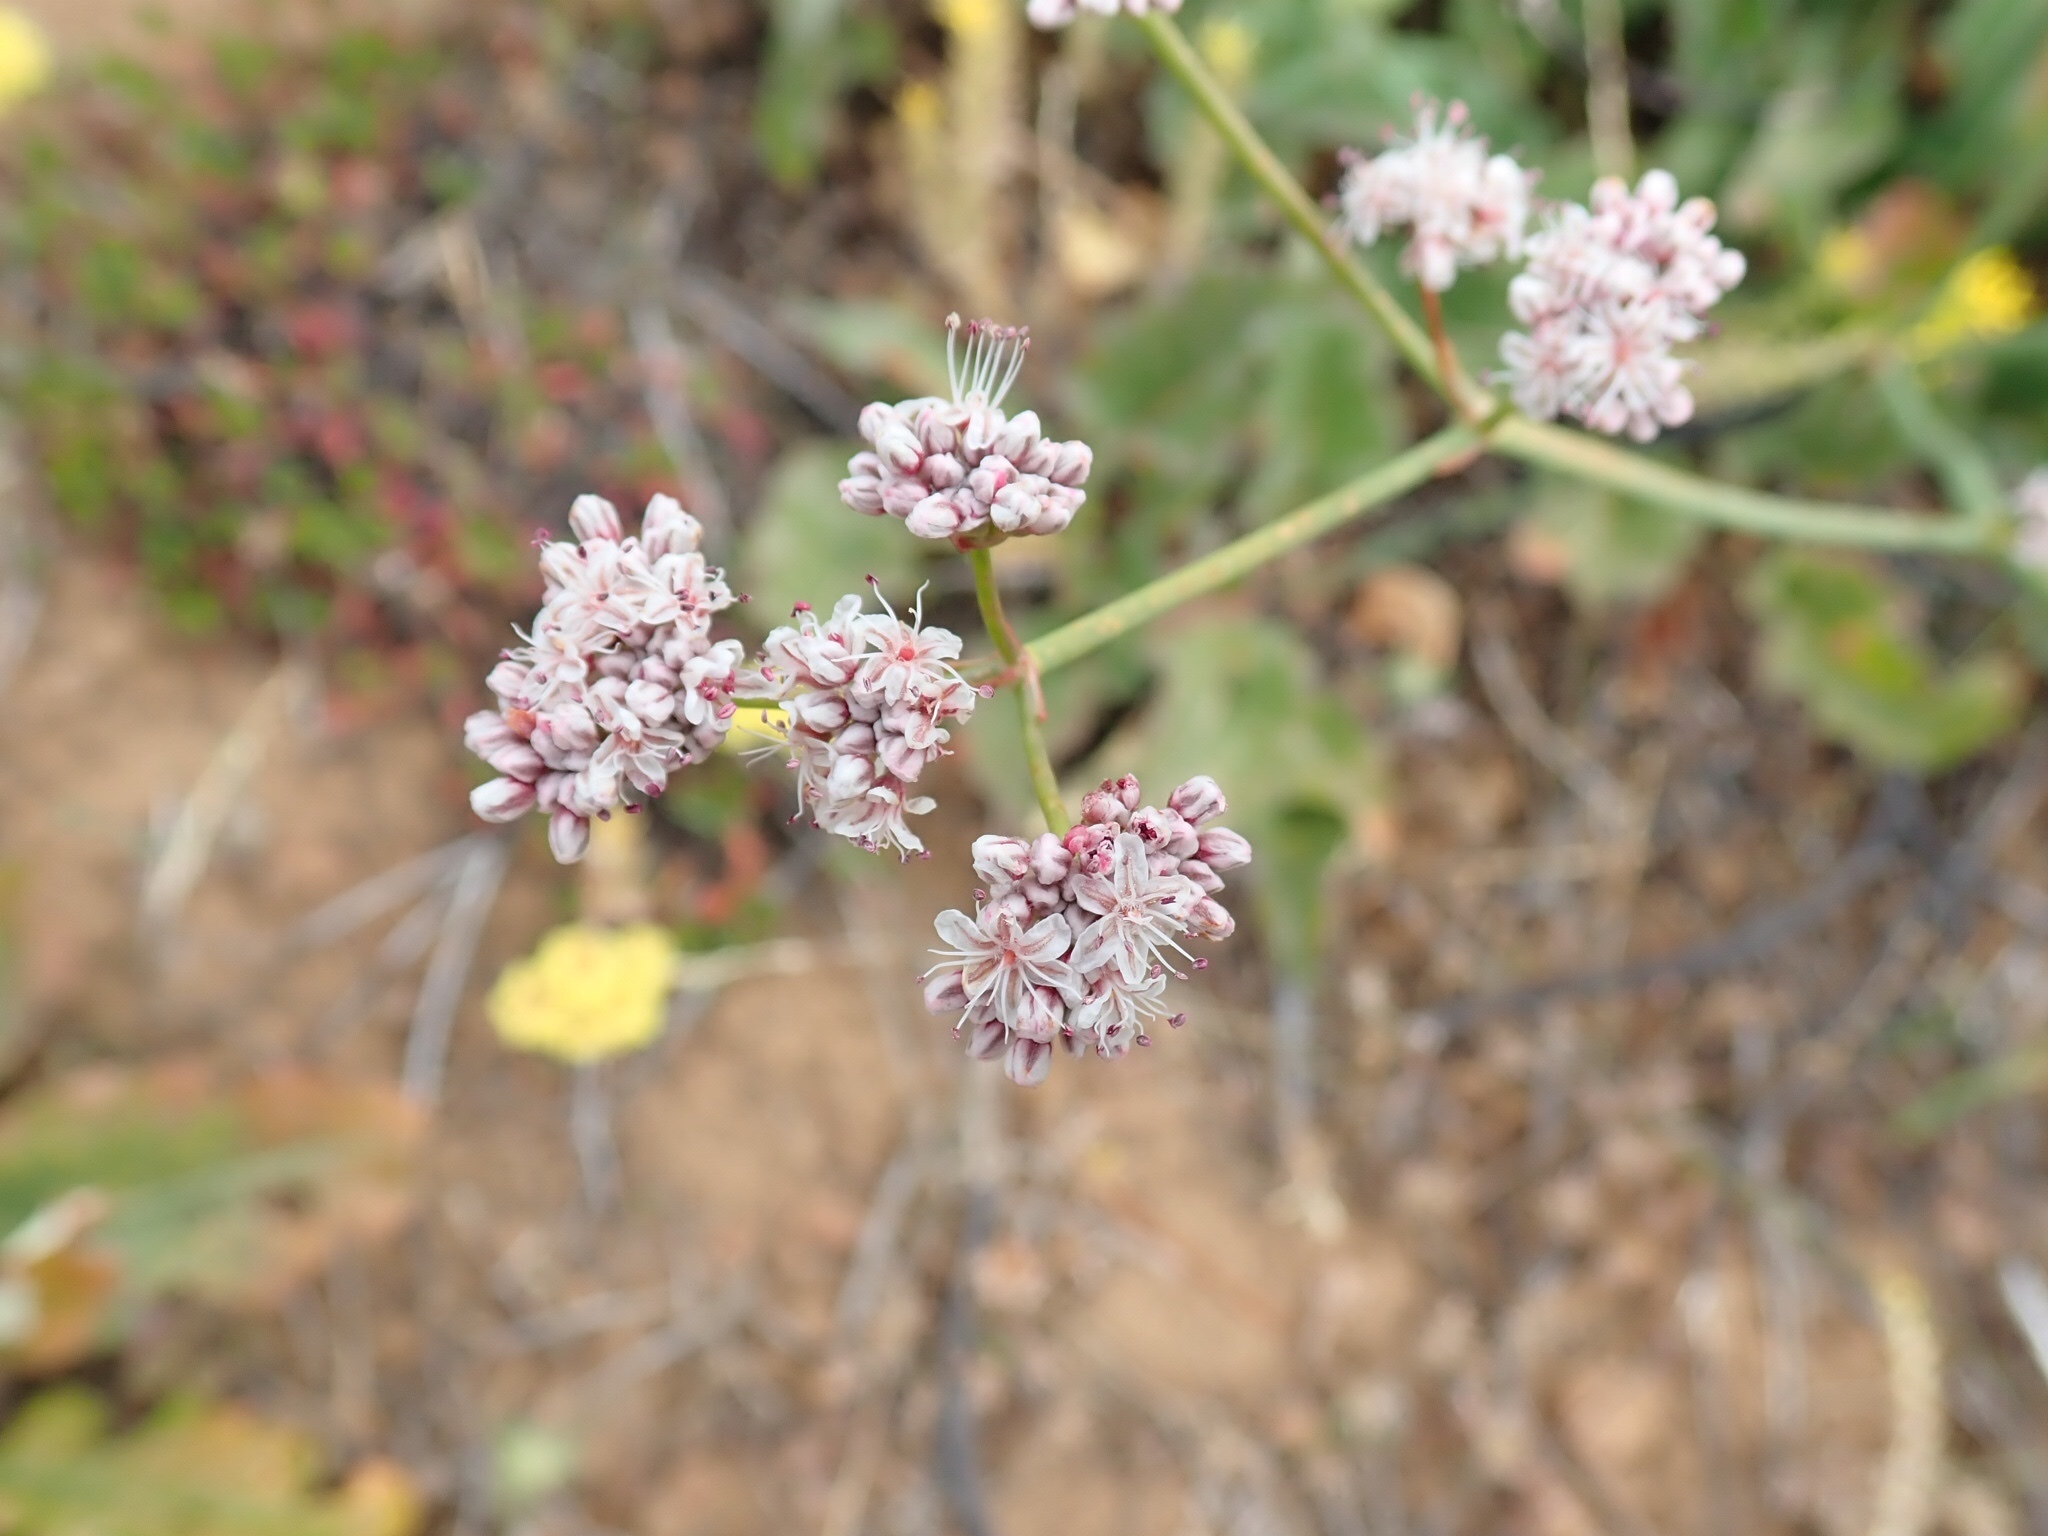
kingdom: Plantae
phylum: Tracheophyta
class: Magnoliopsida
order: Caryophyllales
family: Polygonaceae
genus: Eriogonum
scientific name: Eriogonum elatum
